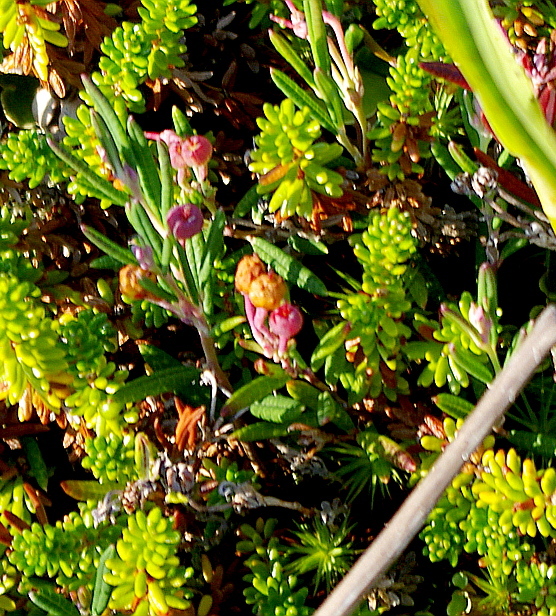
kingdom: Plantae
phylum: Tracheophyta
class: Magnoliopsida
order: Ericales
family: Ericaceae
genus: Andromeda
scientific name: Andromeda polifolia
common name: Bog-rosemary
